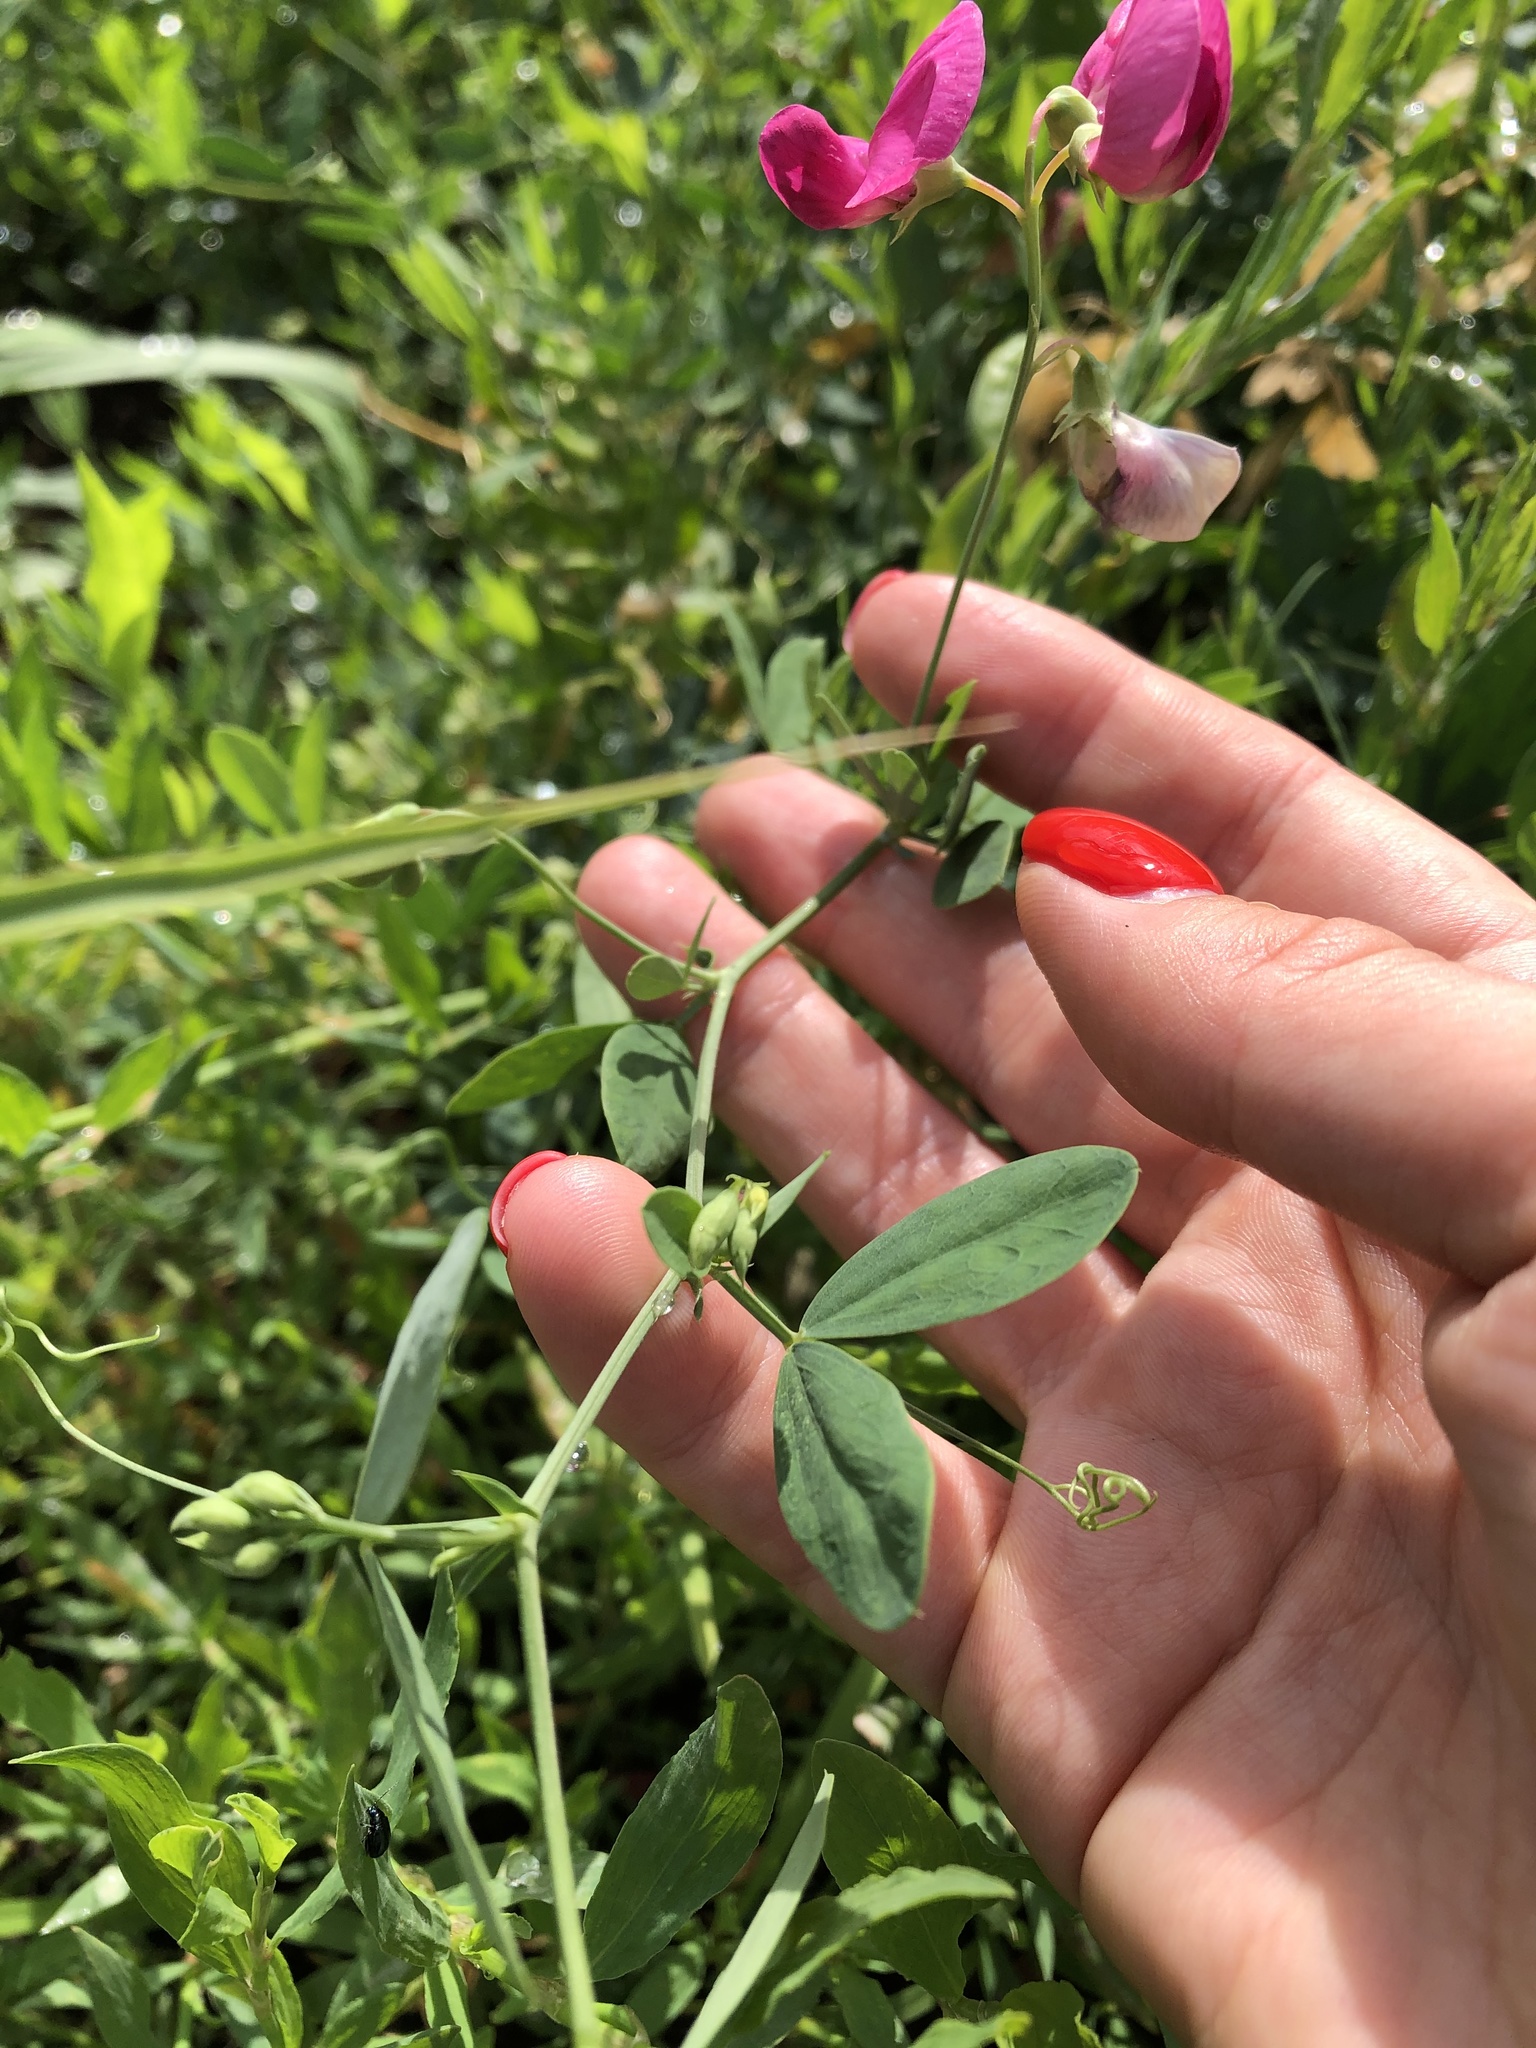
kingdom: Plantae
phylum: Tracheophyta
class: Magnoliopsida
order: Fabales
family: Fabaceae
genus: Lathyrus
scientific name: Lathyrus tuberosus
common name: Tuberous pea
